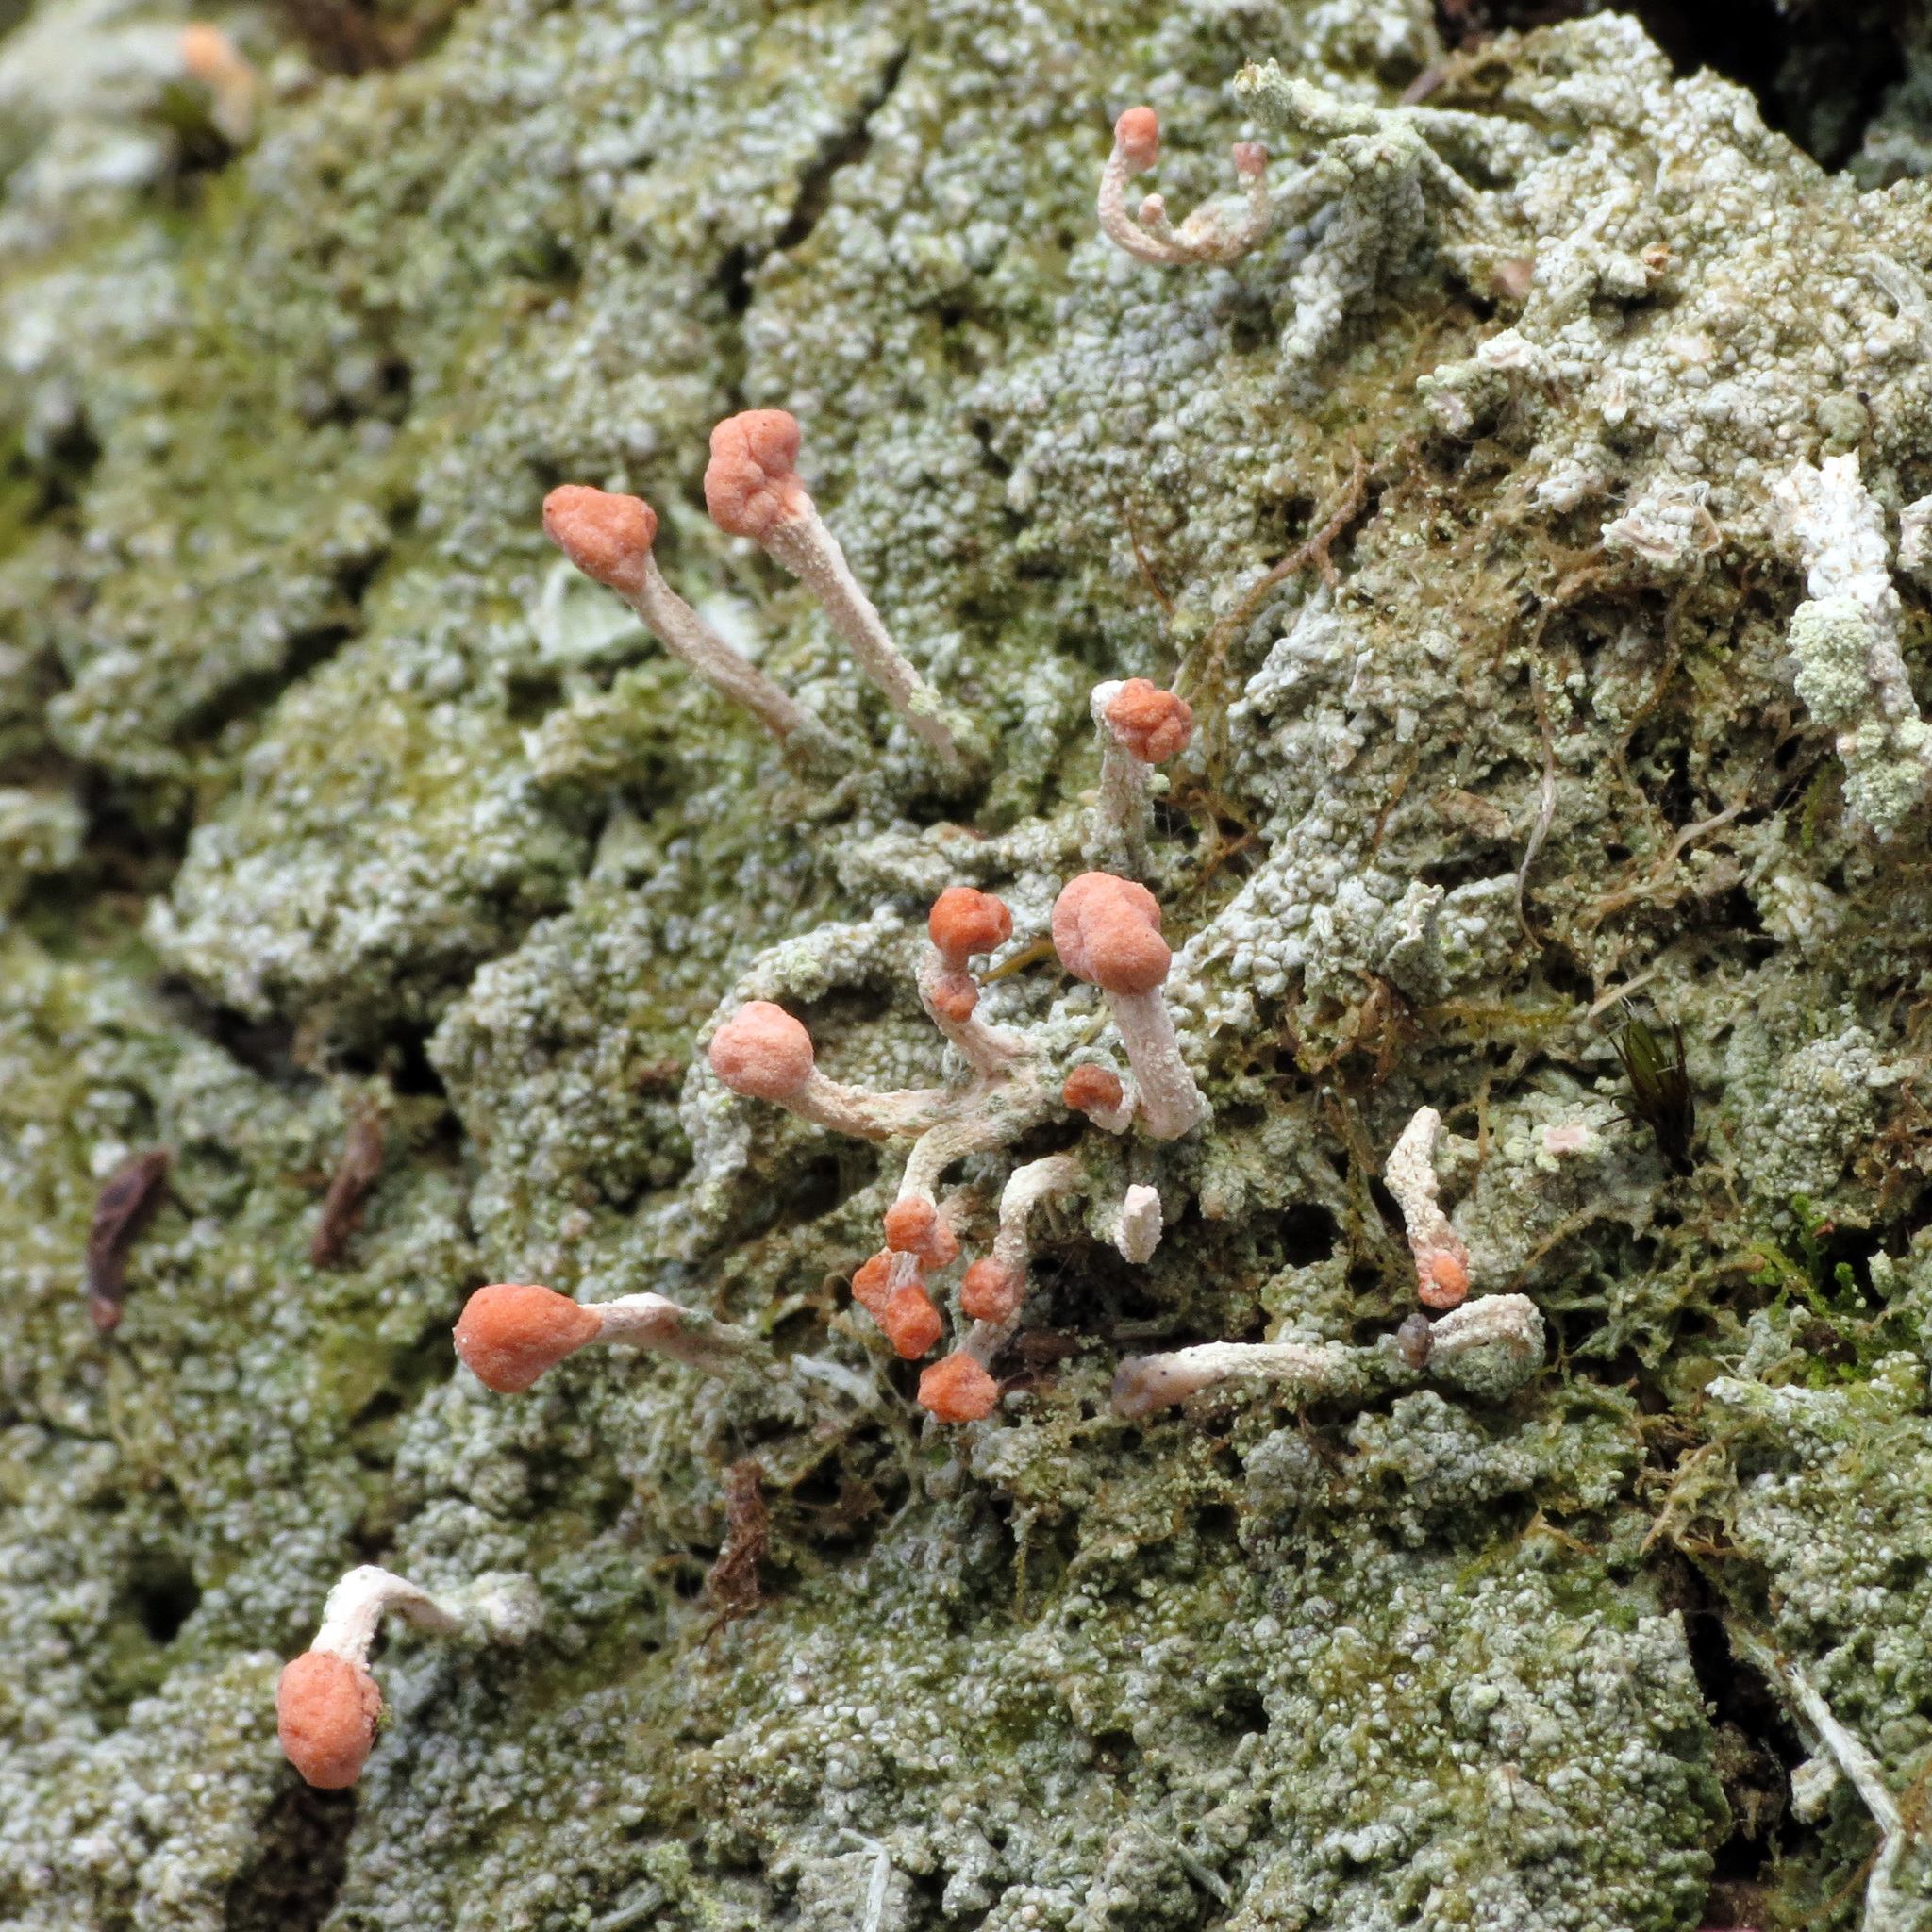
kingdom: Fungi
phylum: Ascomycota
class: Lecanoromycetes
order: Pertusariales
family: Icmadophilaceae
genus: Dibaeis
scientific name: Dibaeis arcuata
